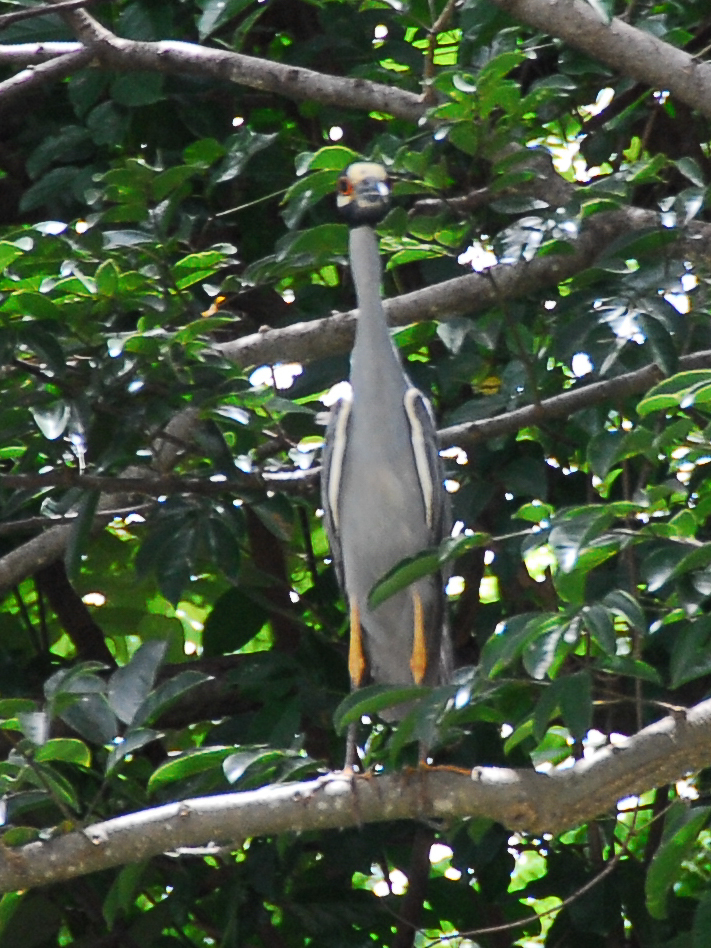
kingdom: Animalia
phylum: Chordata
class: Aves
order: Pelecaniformes
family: Ardeidae
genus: Nyctanassa
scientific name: Nyctanassa violacea
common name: Yellow-crowned night heron
